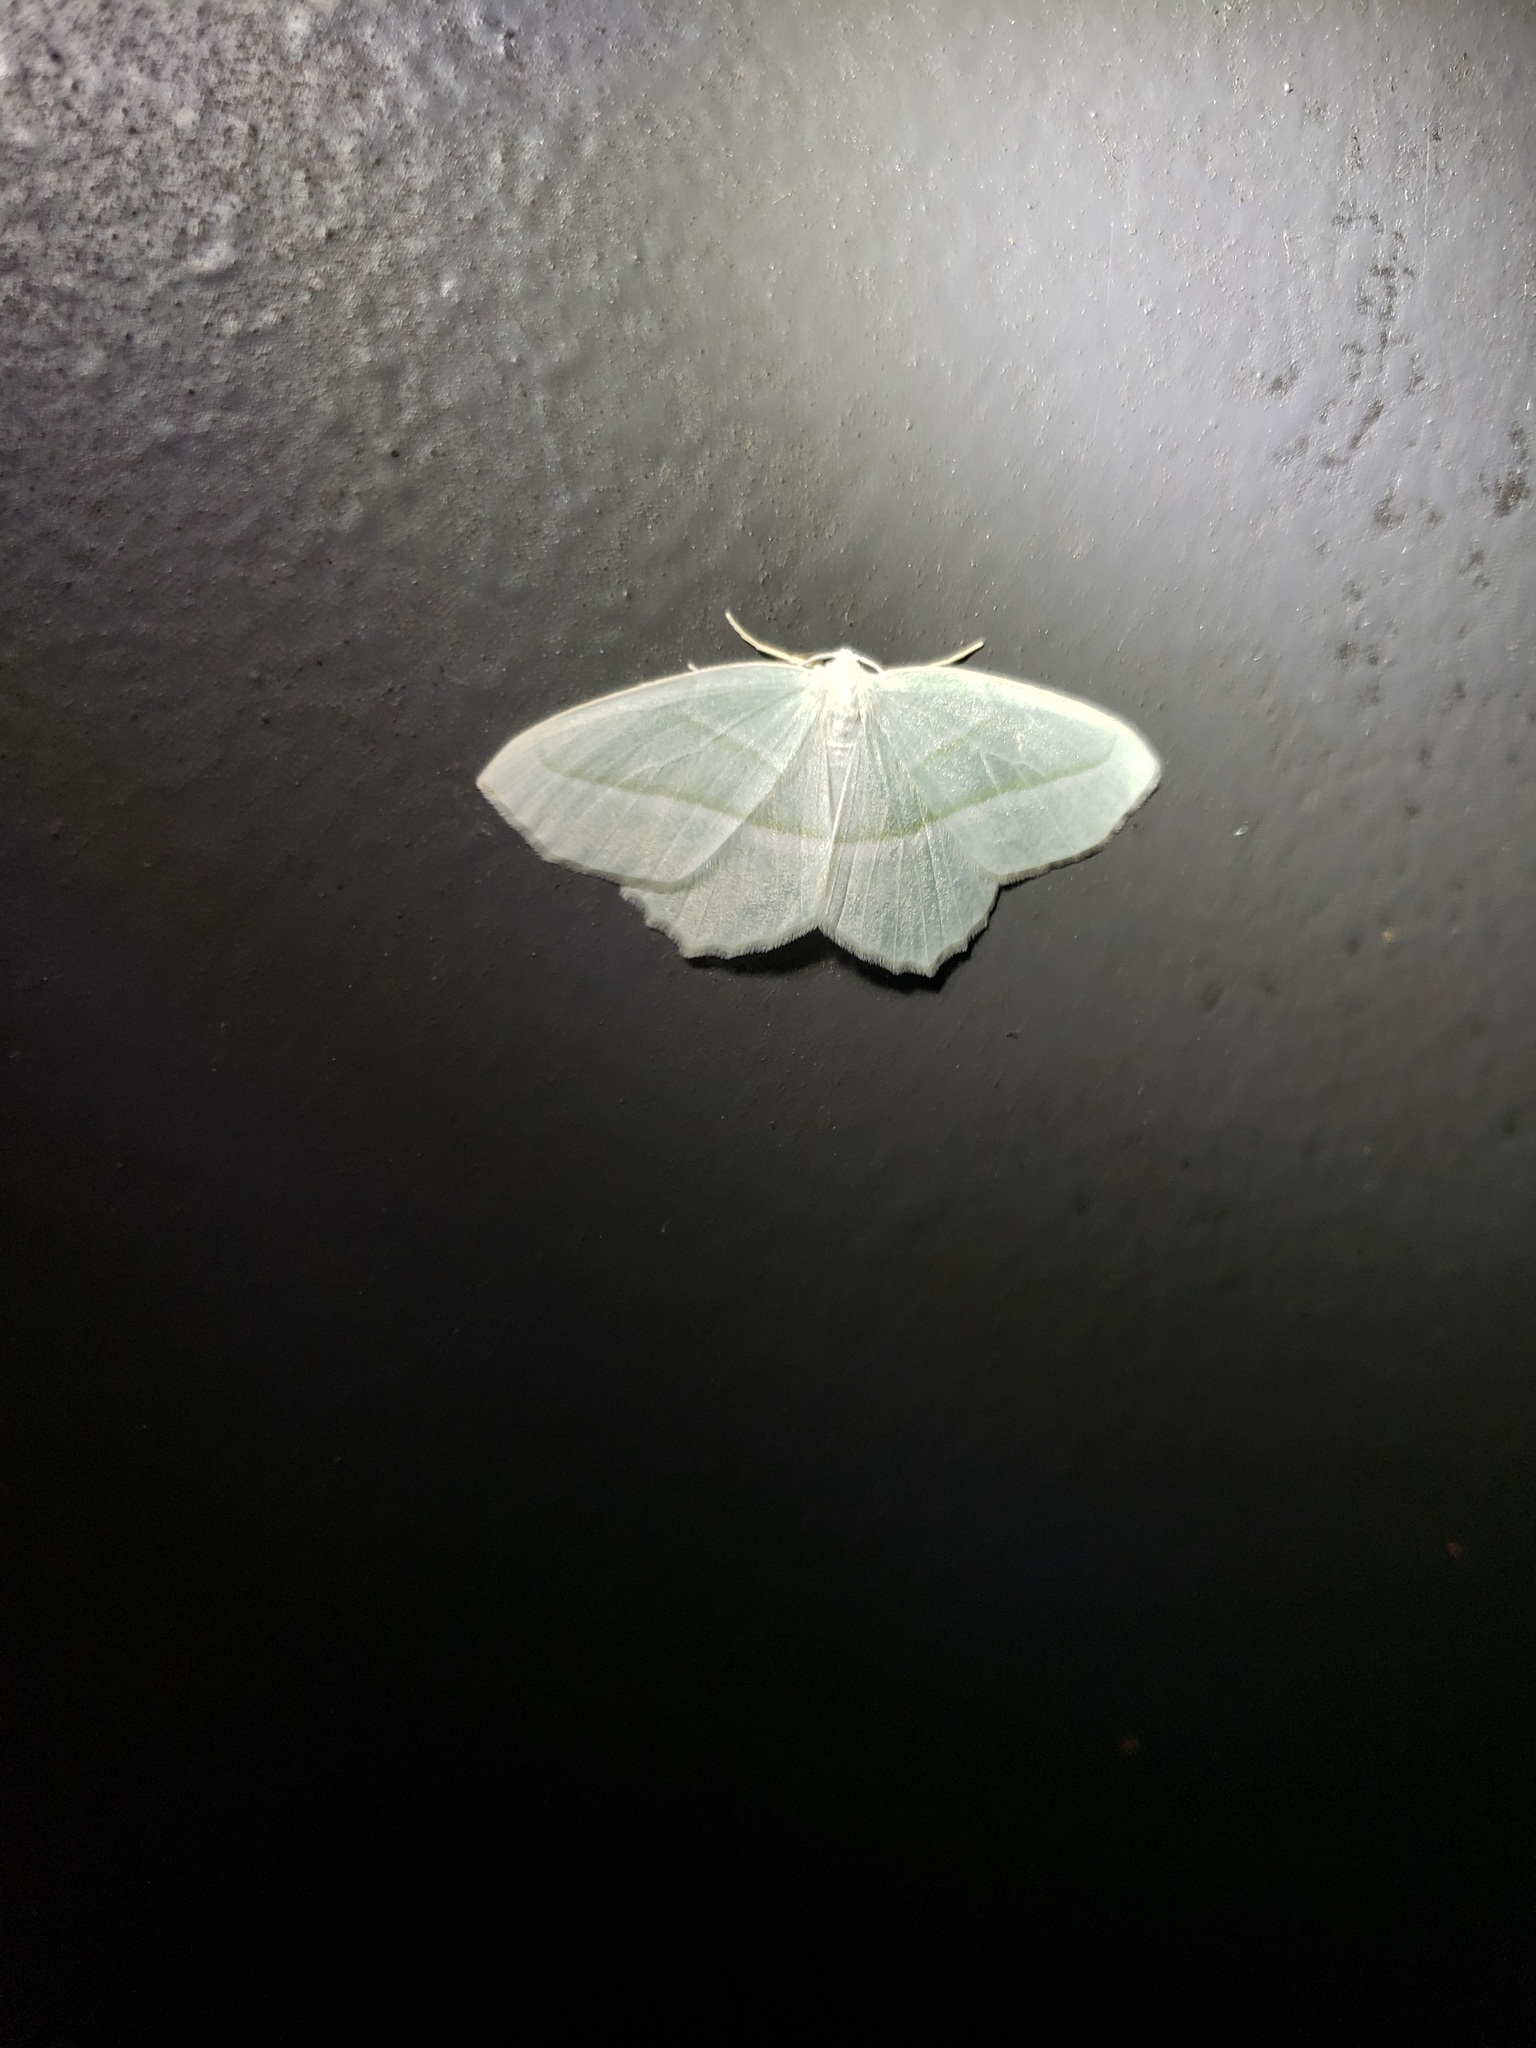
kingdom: Animalia
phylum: Arthropoda
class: Insecta
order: Lepidoptera
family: Geometridae
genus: Campaea
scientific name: Campaea perlata
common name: Fringed looper
